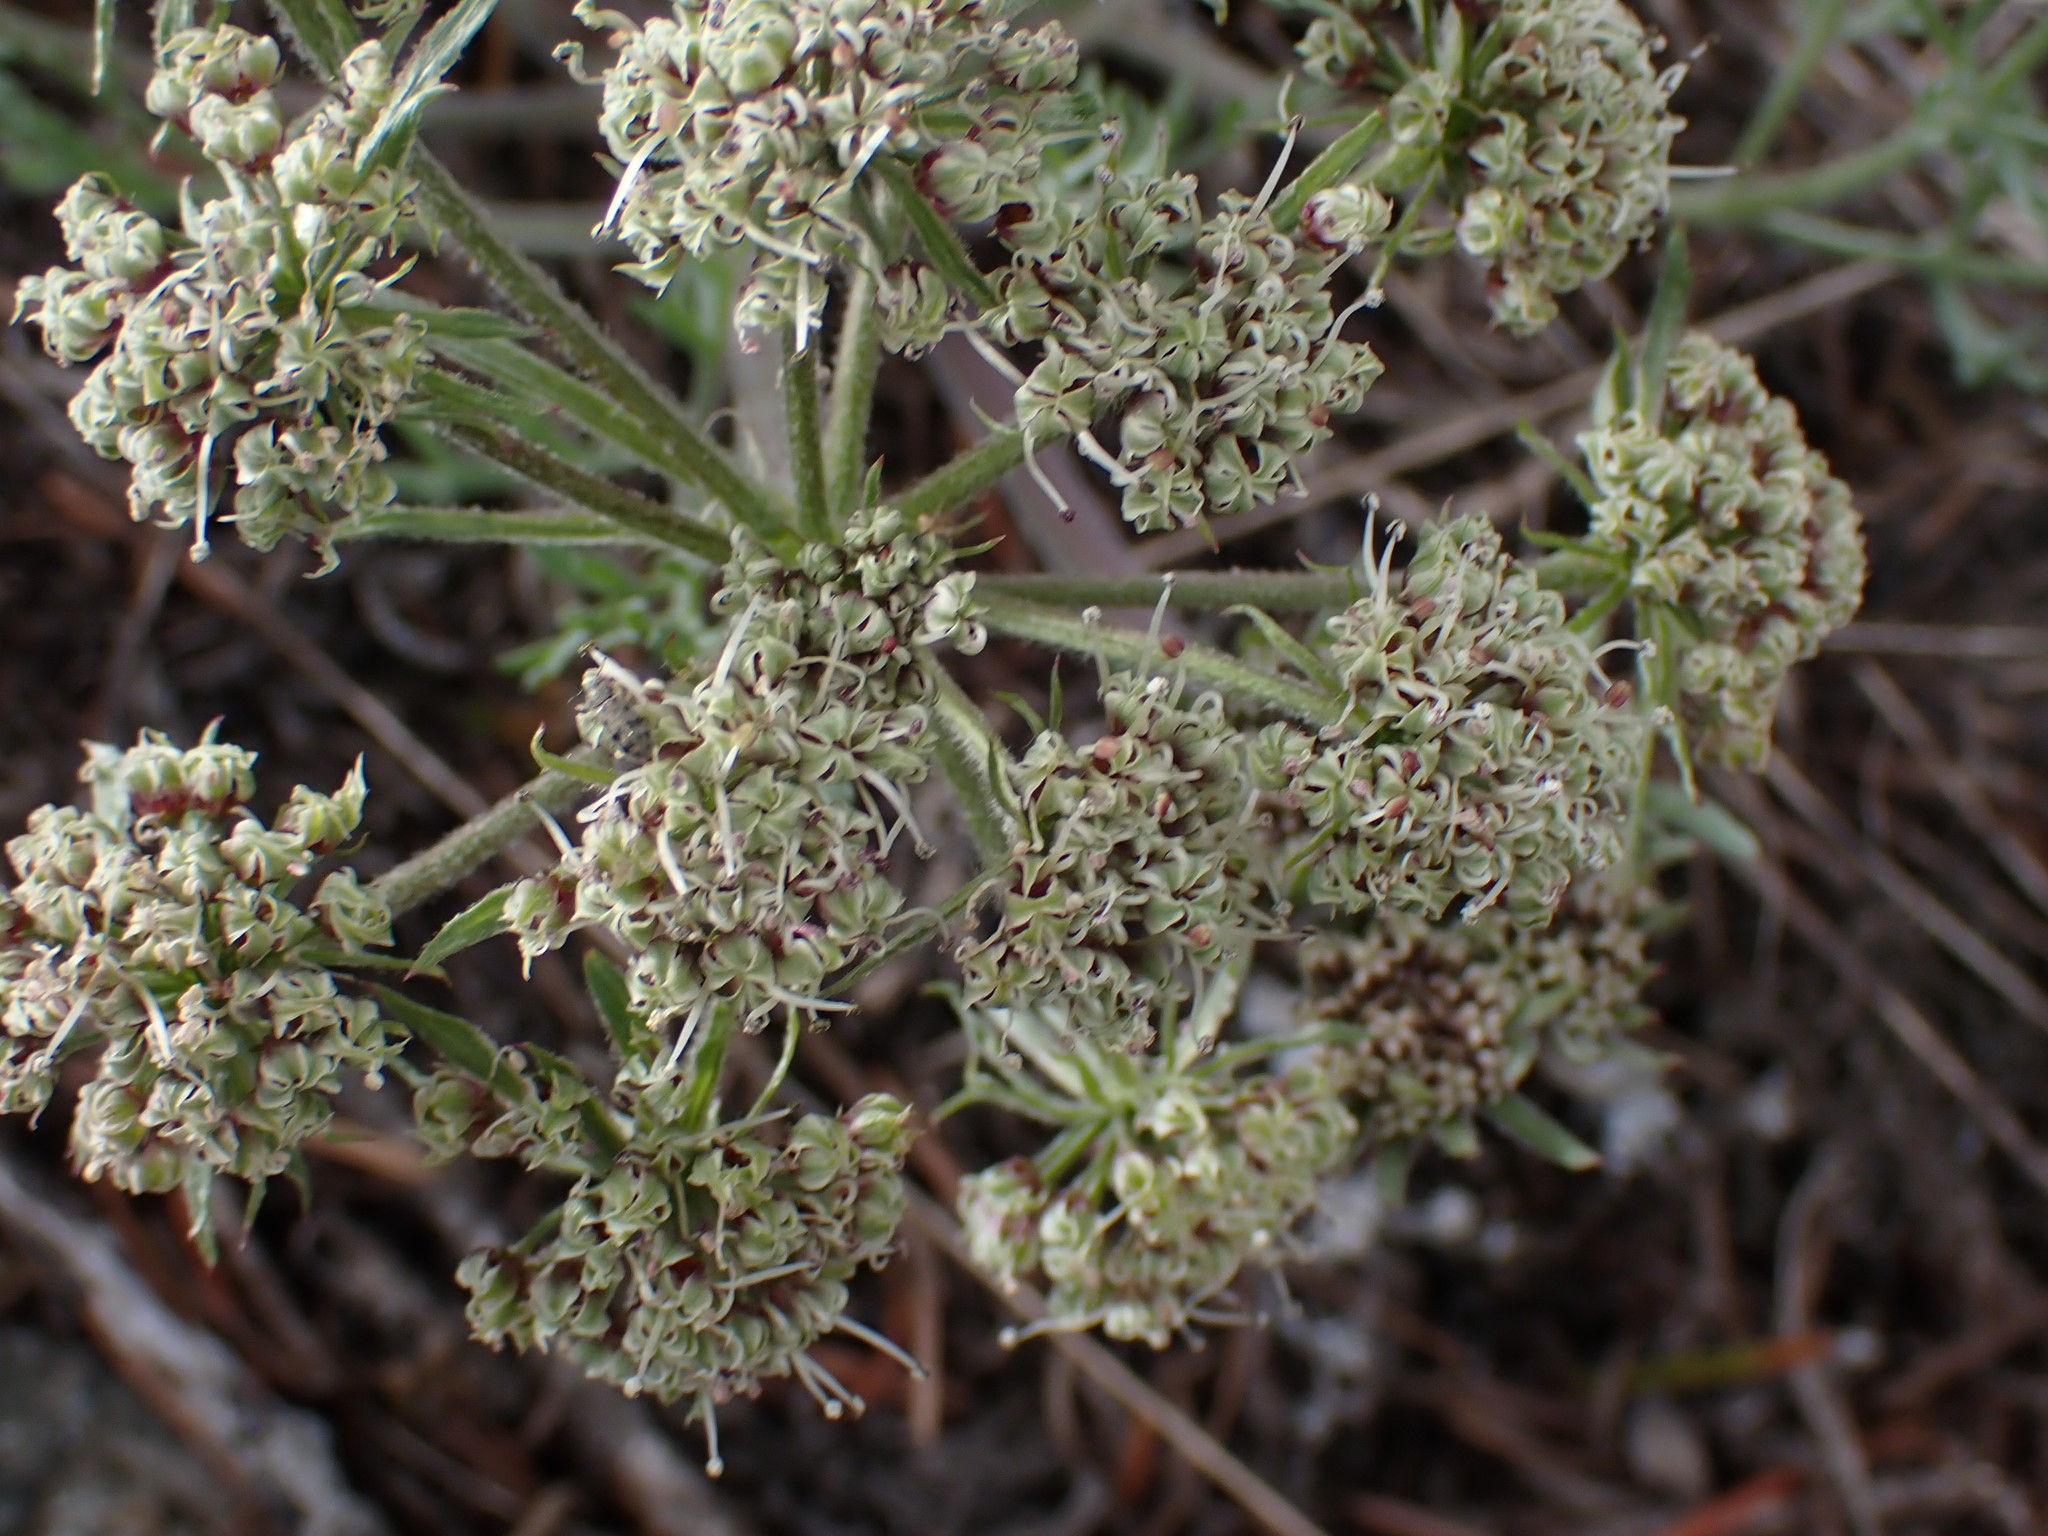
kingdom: Plantae
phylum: Tracheophyta
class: Magnoliopsida
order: Apiales
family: Apiaceae
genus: Lomatium
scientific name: Lomatium macrocarpum
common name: Big-seed biscuitroot
